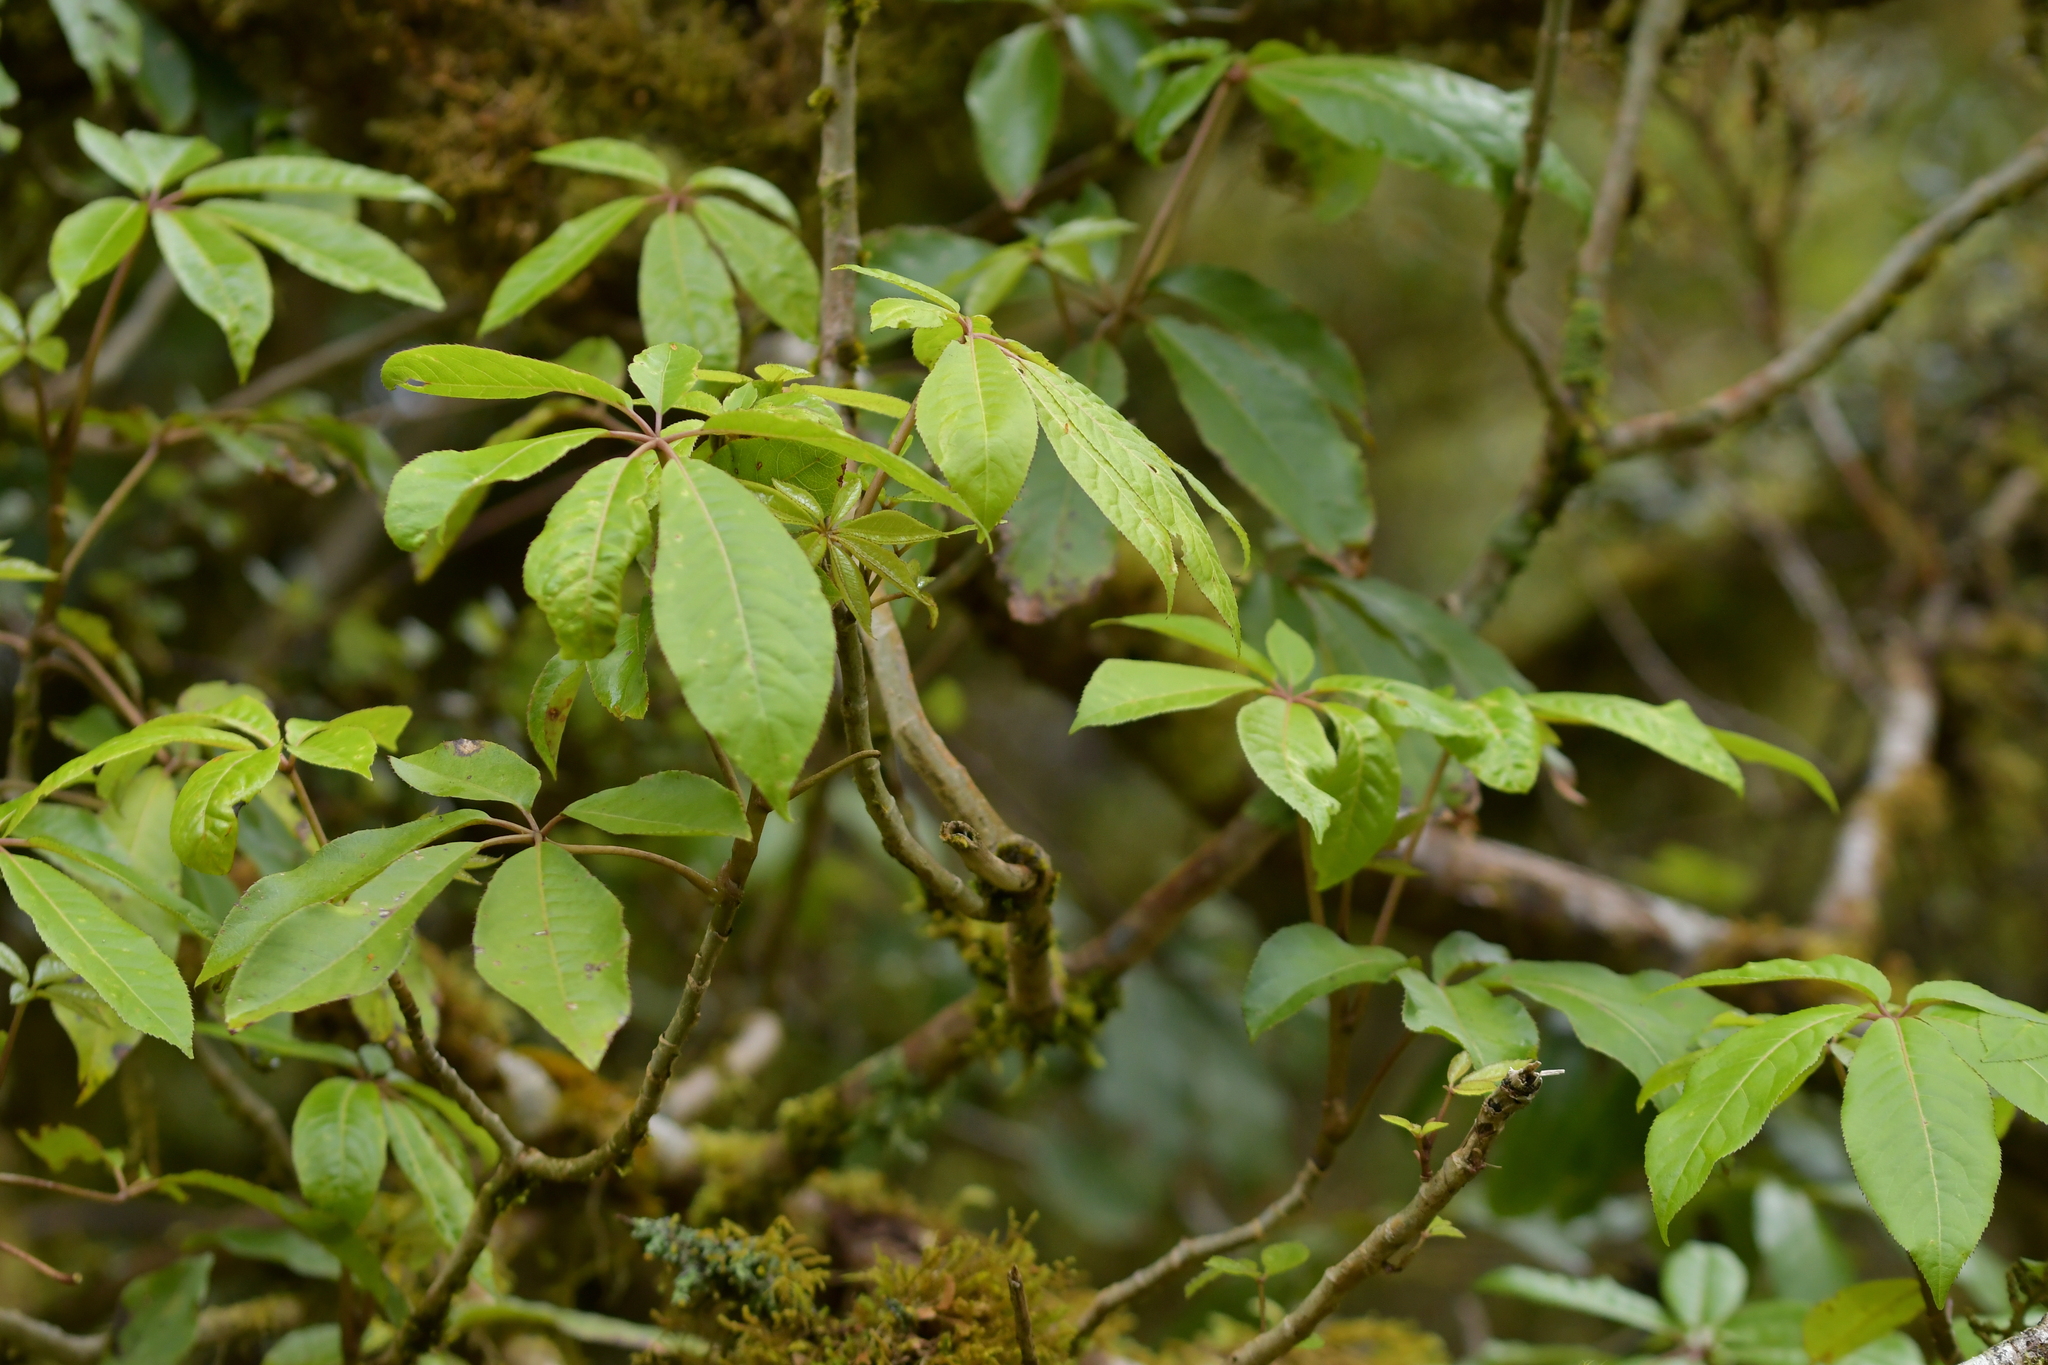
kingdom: Plantae
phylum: Tracheophyta
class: Magnoliopsida
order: Apiales
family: Araliaceae
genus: Schefflera
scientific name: Schefflera digitata
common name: Pate
